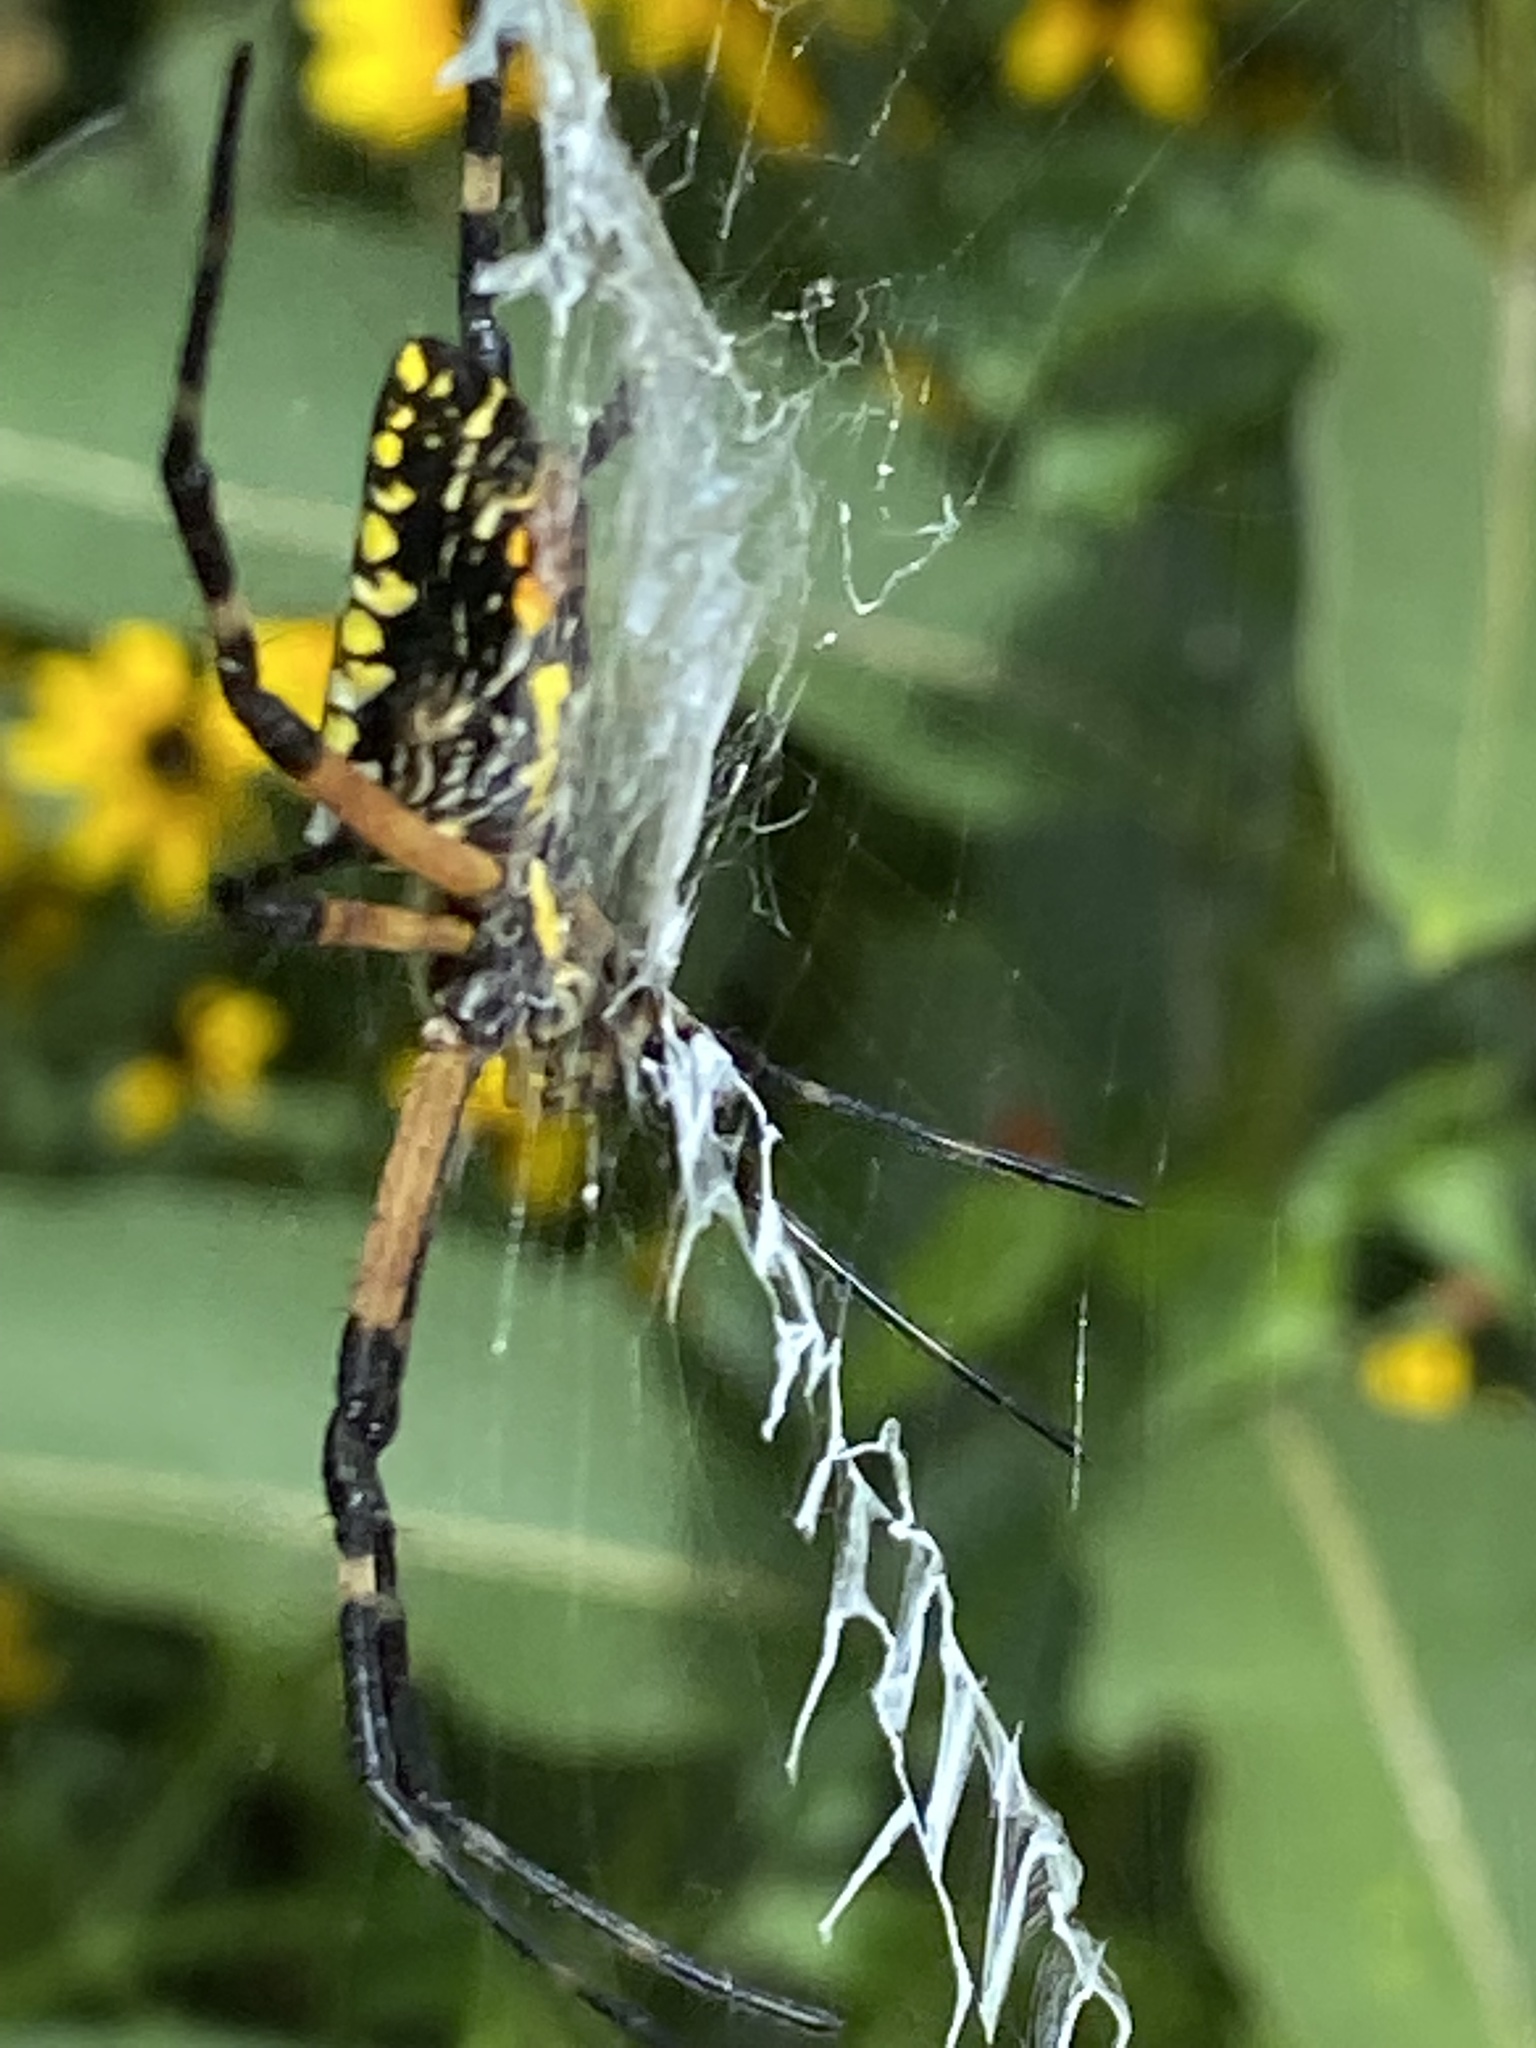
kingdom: Animalia
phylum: Arthropoda
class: Arachnida
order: Araneae
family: Araneidae
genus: Argiope
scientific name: Argiope aurantia
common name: Orb weavers
